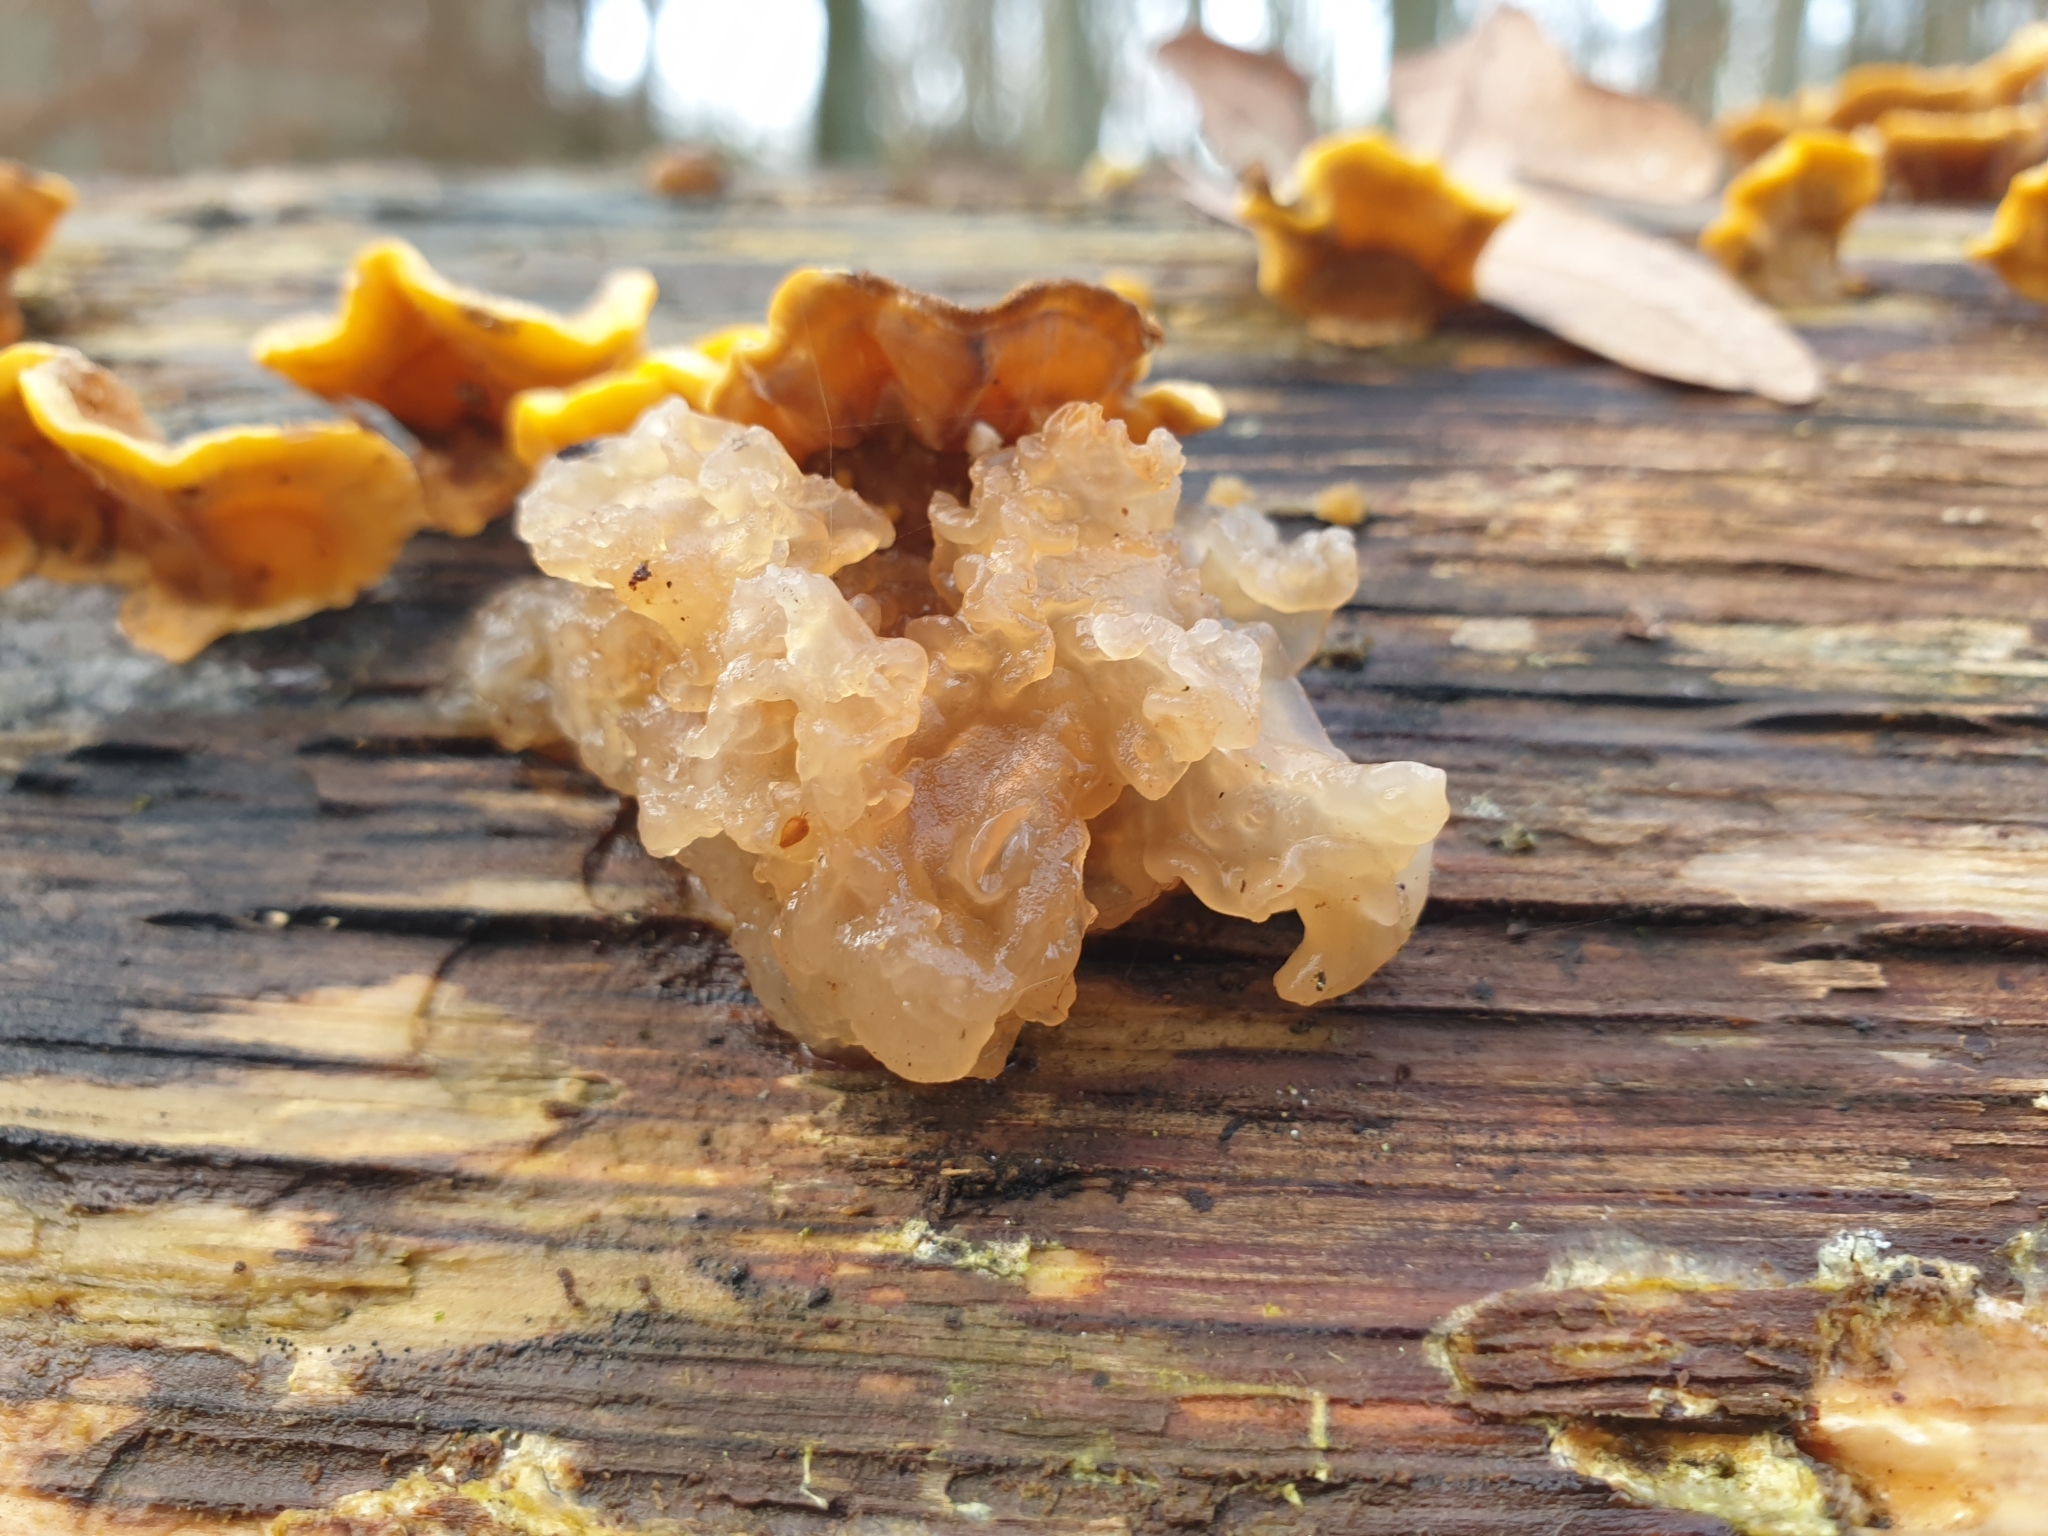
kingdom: Fungi
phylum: Basidiomycota
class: Agaricomycetes
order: Russulales
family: Stereaceae
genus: Stereum
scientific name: Stereum hirsutum
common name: Hairy curtain crust
